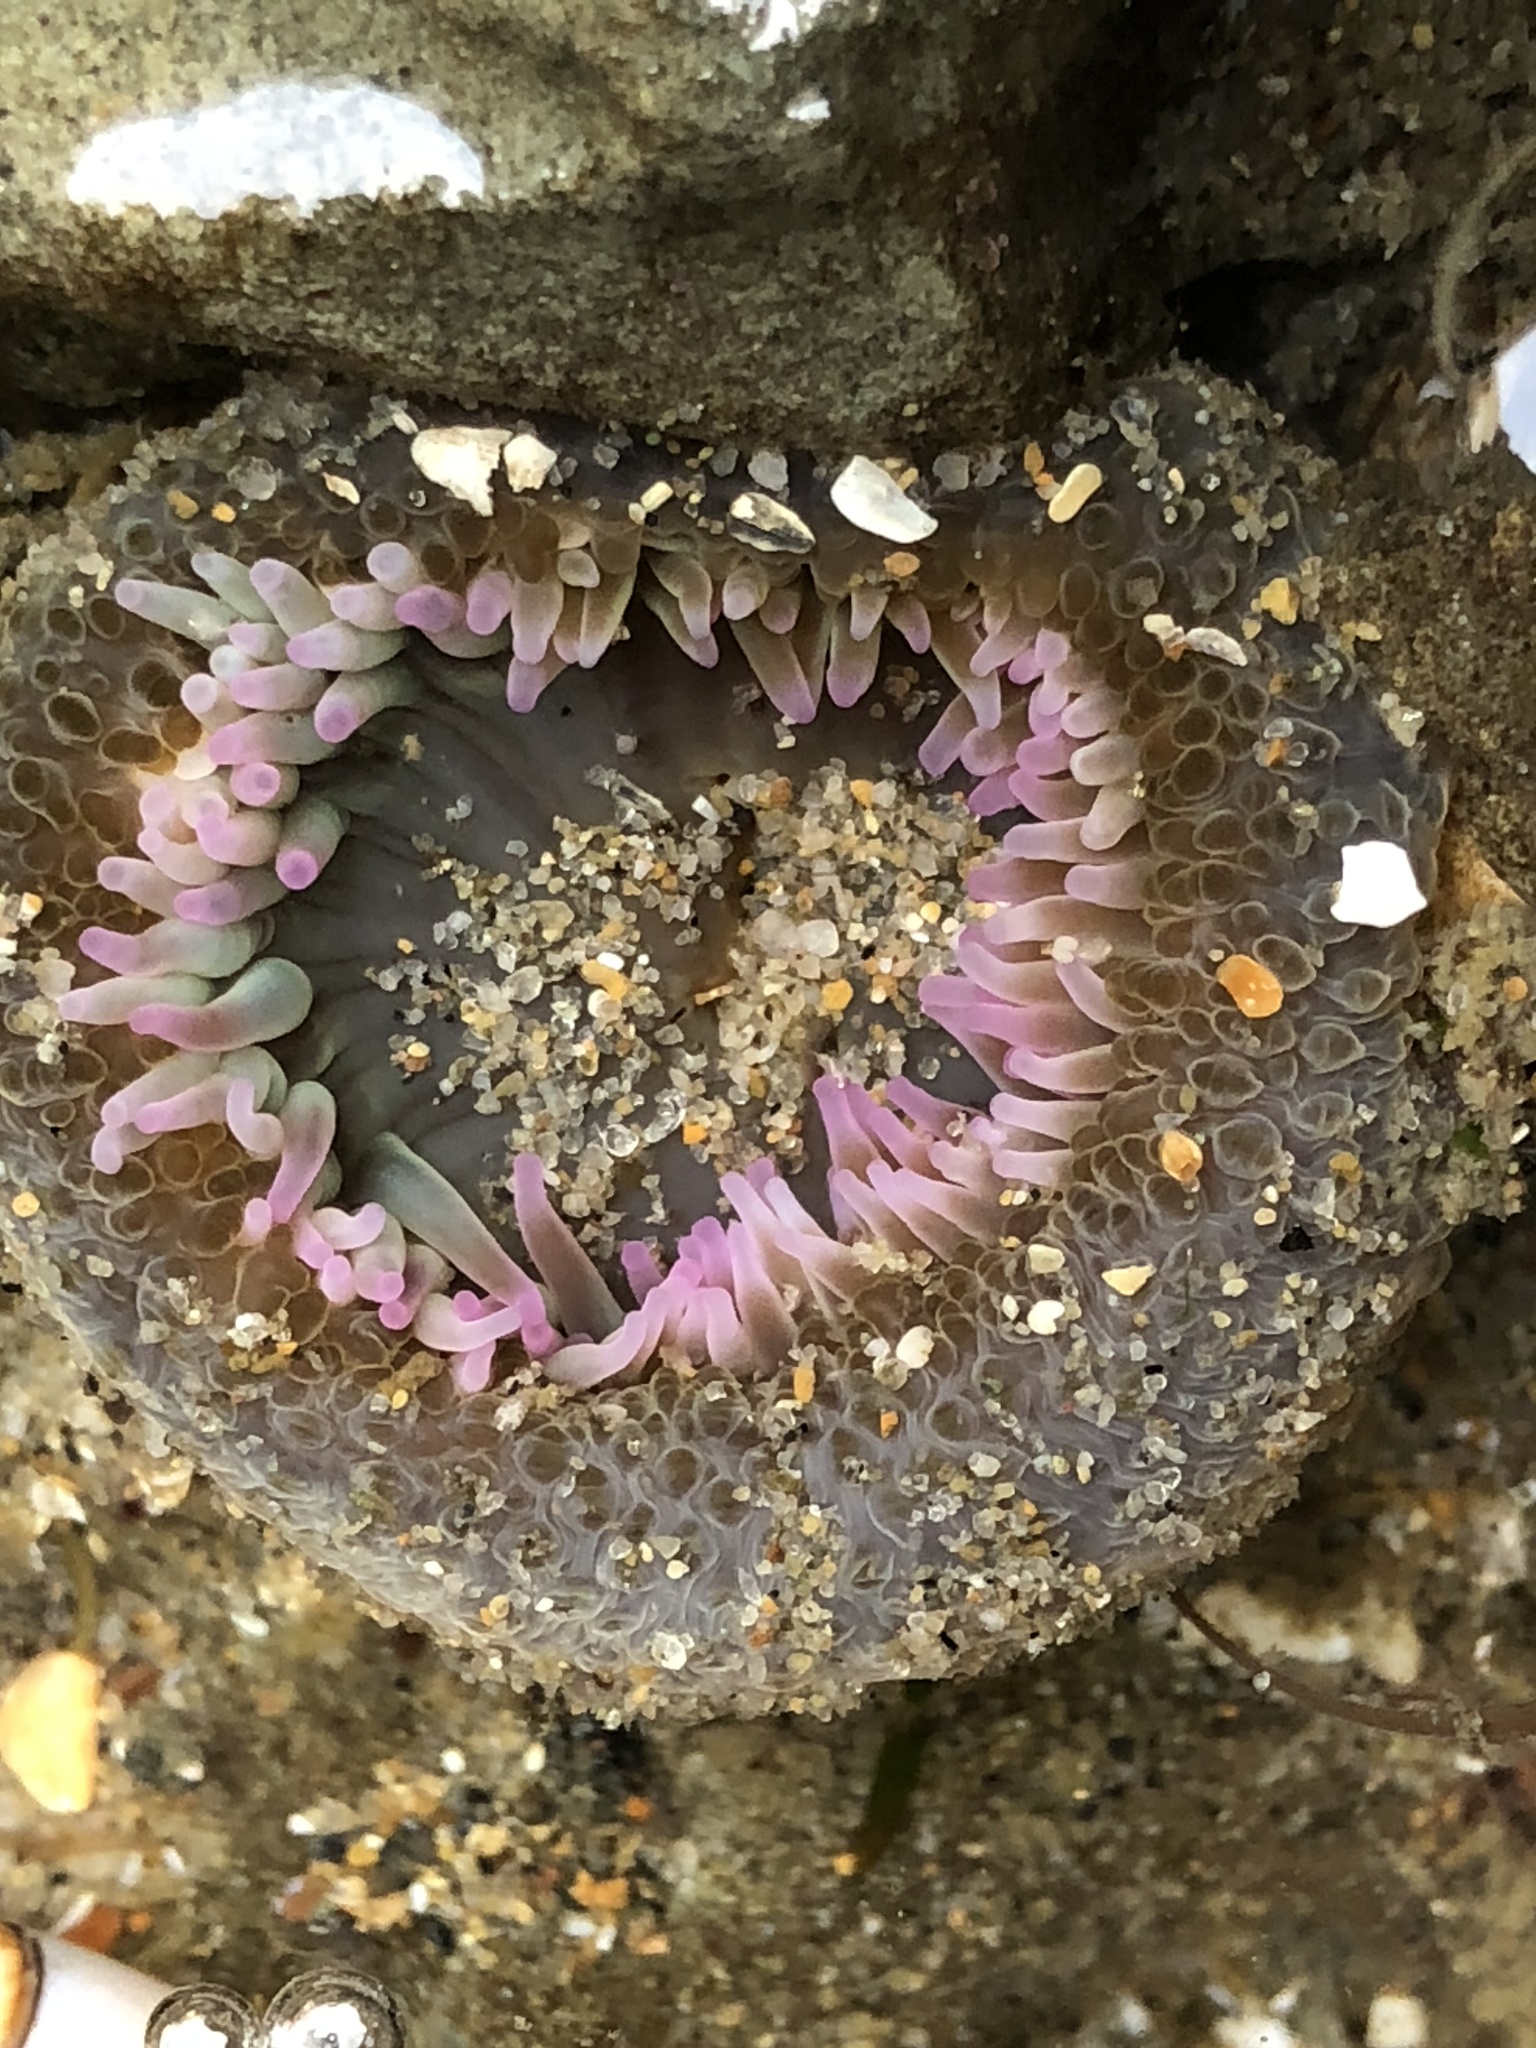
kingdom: Animalia
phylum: Cnidaria
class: Anthozoa
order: Actiniaria
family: Actiniidae
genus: Anthopleura
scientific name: Anthopleura elegantissima
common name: Clonal anemone
